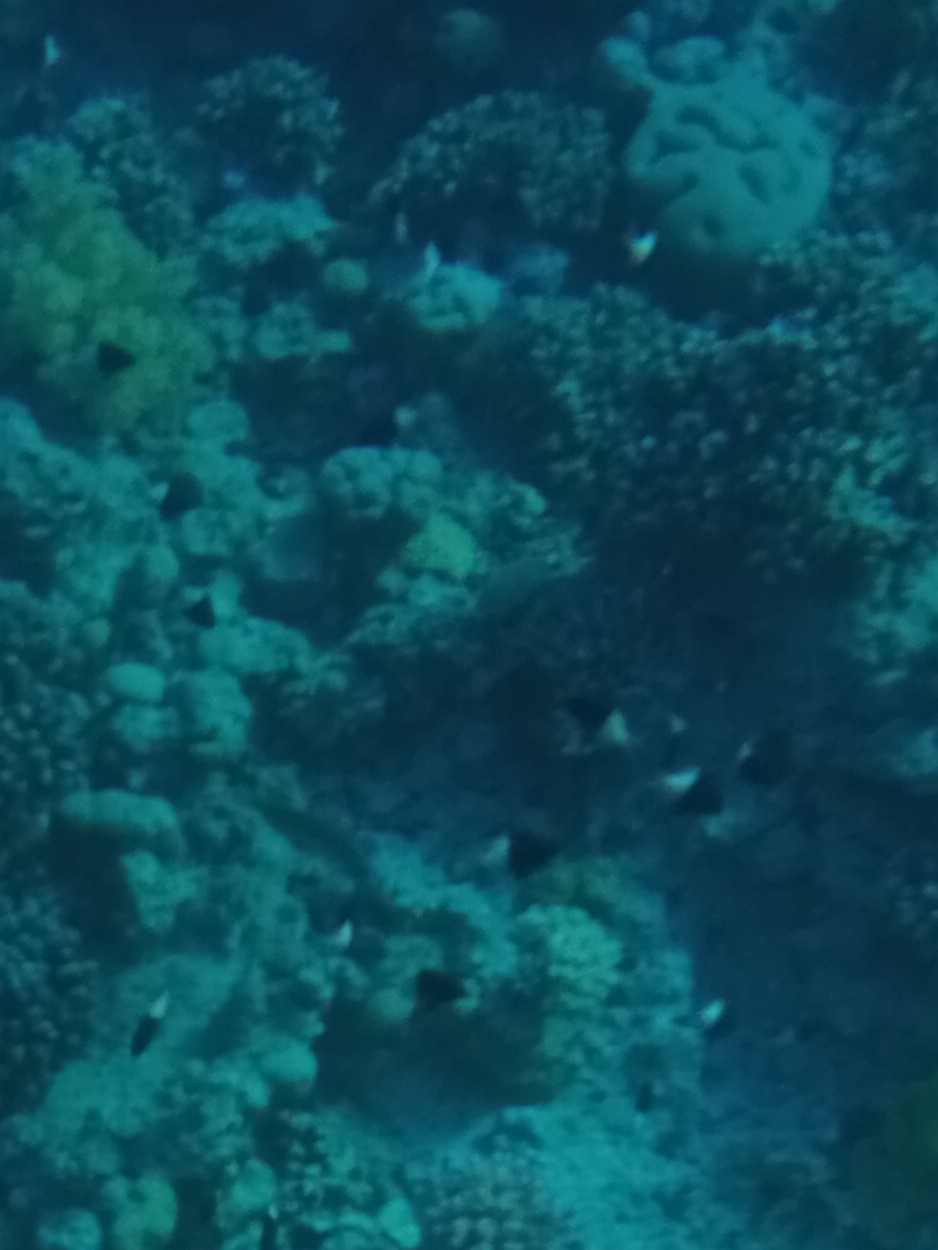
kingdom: Animalia
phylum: Chordata
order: Perciformes
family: Pomacentridae
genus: Chromis
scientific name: Chromis dimidiata
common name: Half-and-half chromis
